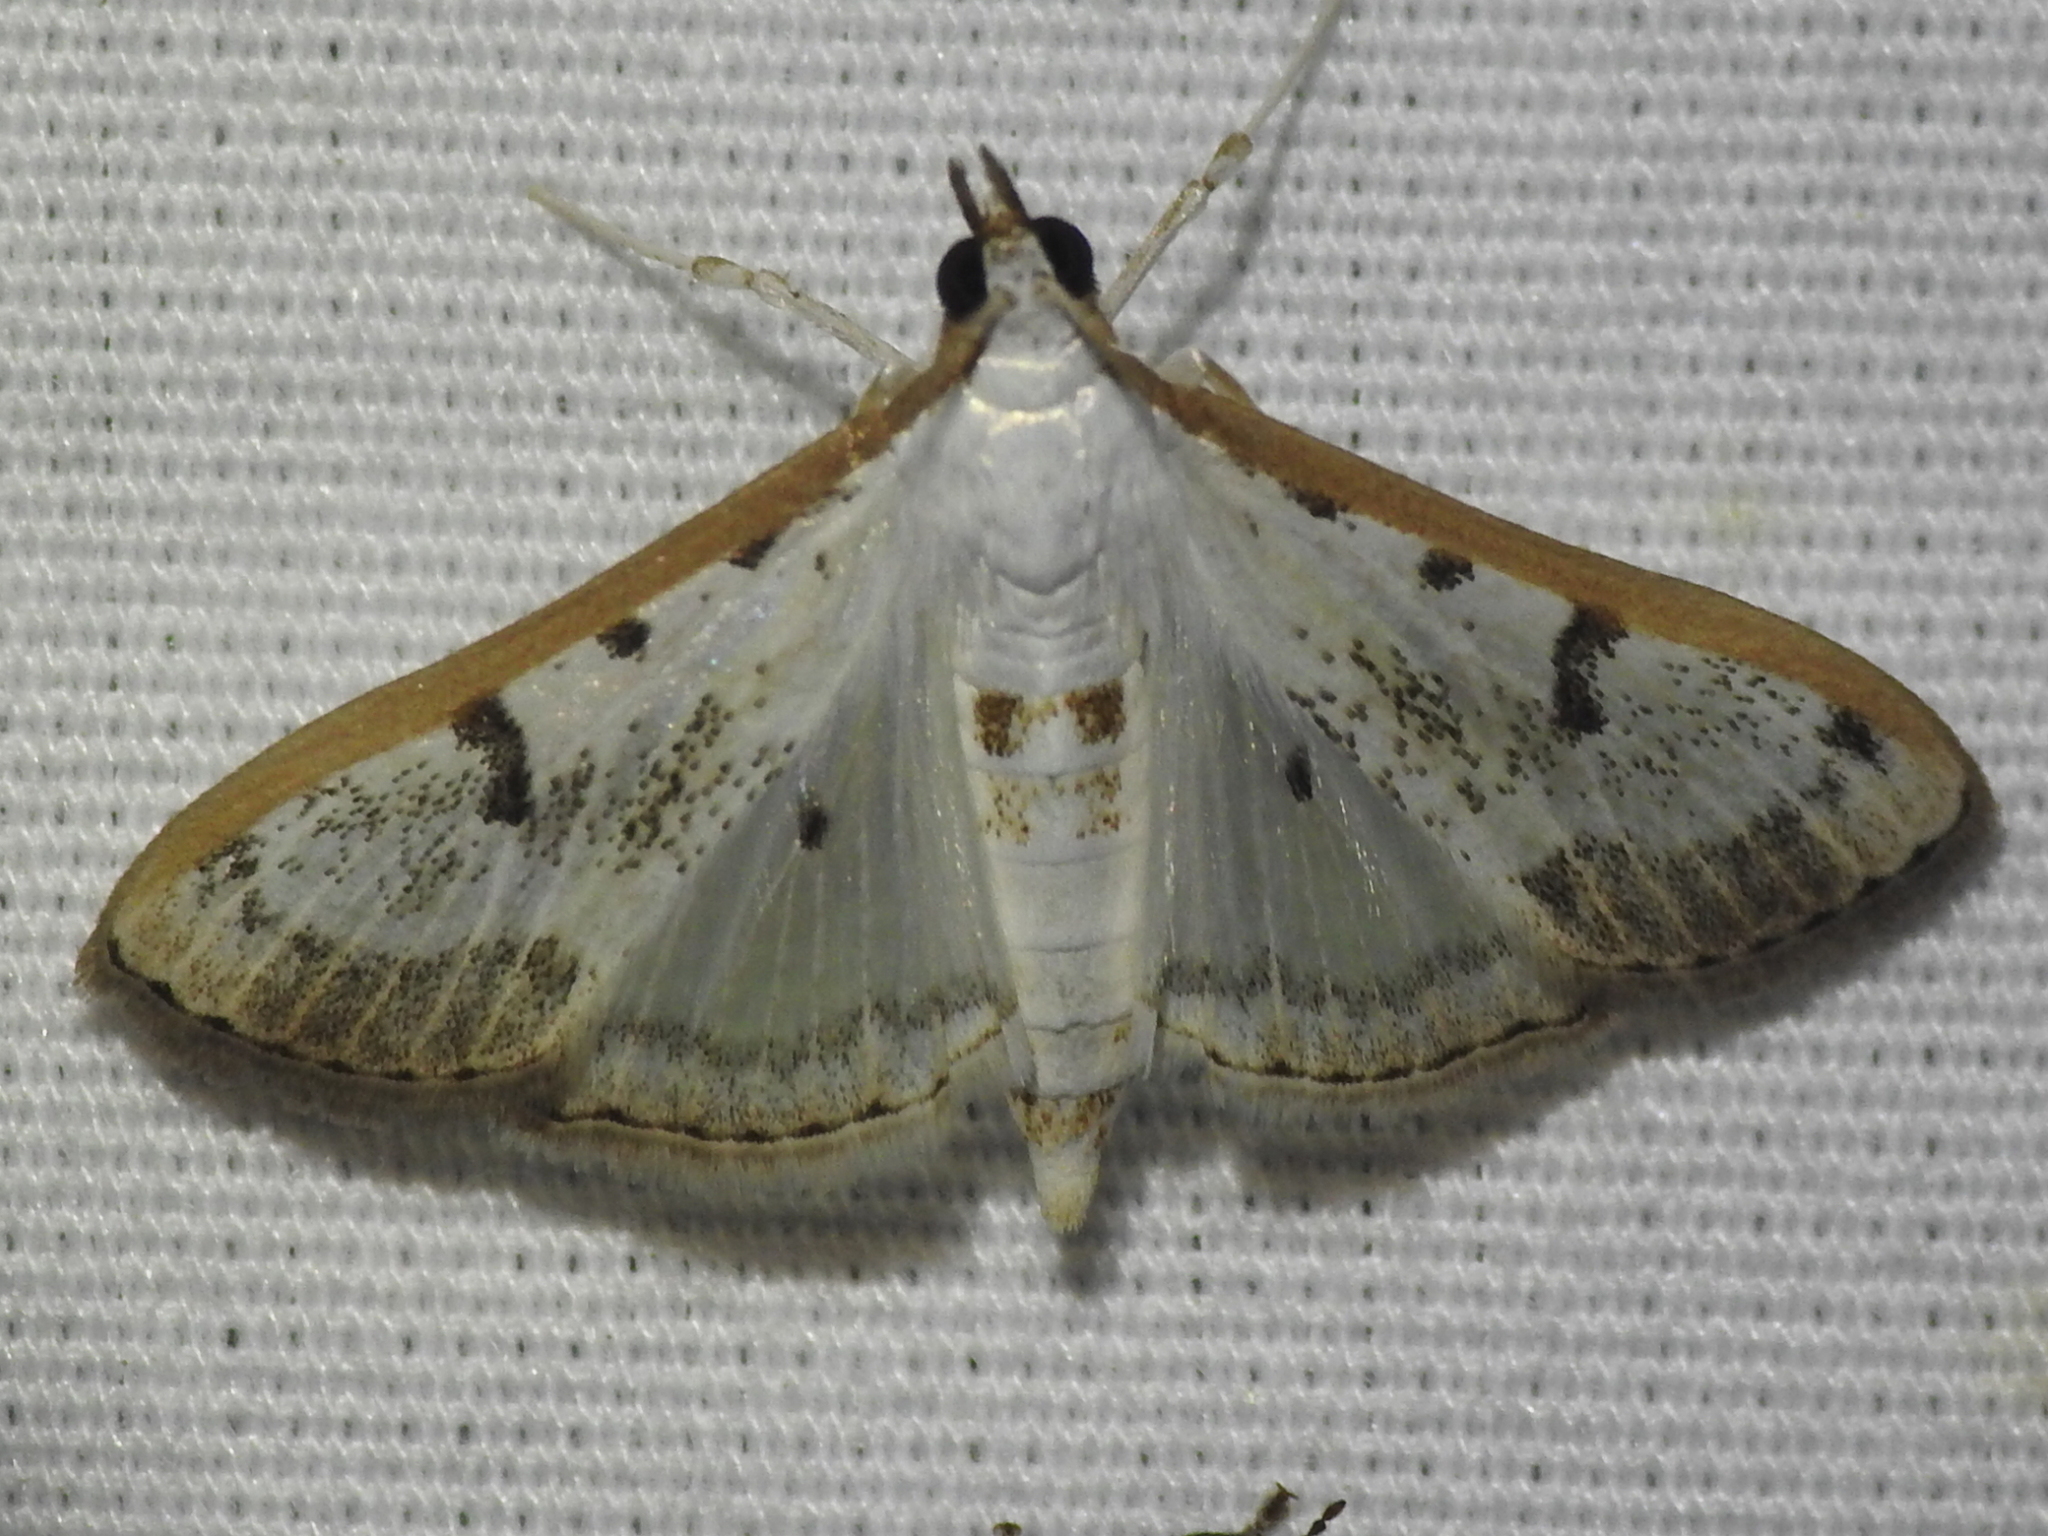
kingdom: Animalia
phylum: Arthropoda
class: Insecta
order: Lepidoptera
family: Crambidae
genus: Palpita
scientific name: Palpita gracilalis
